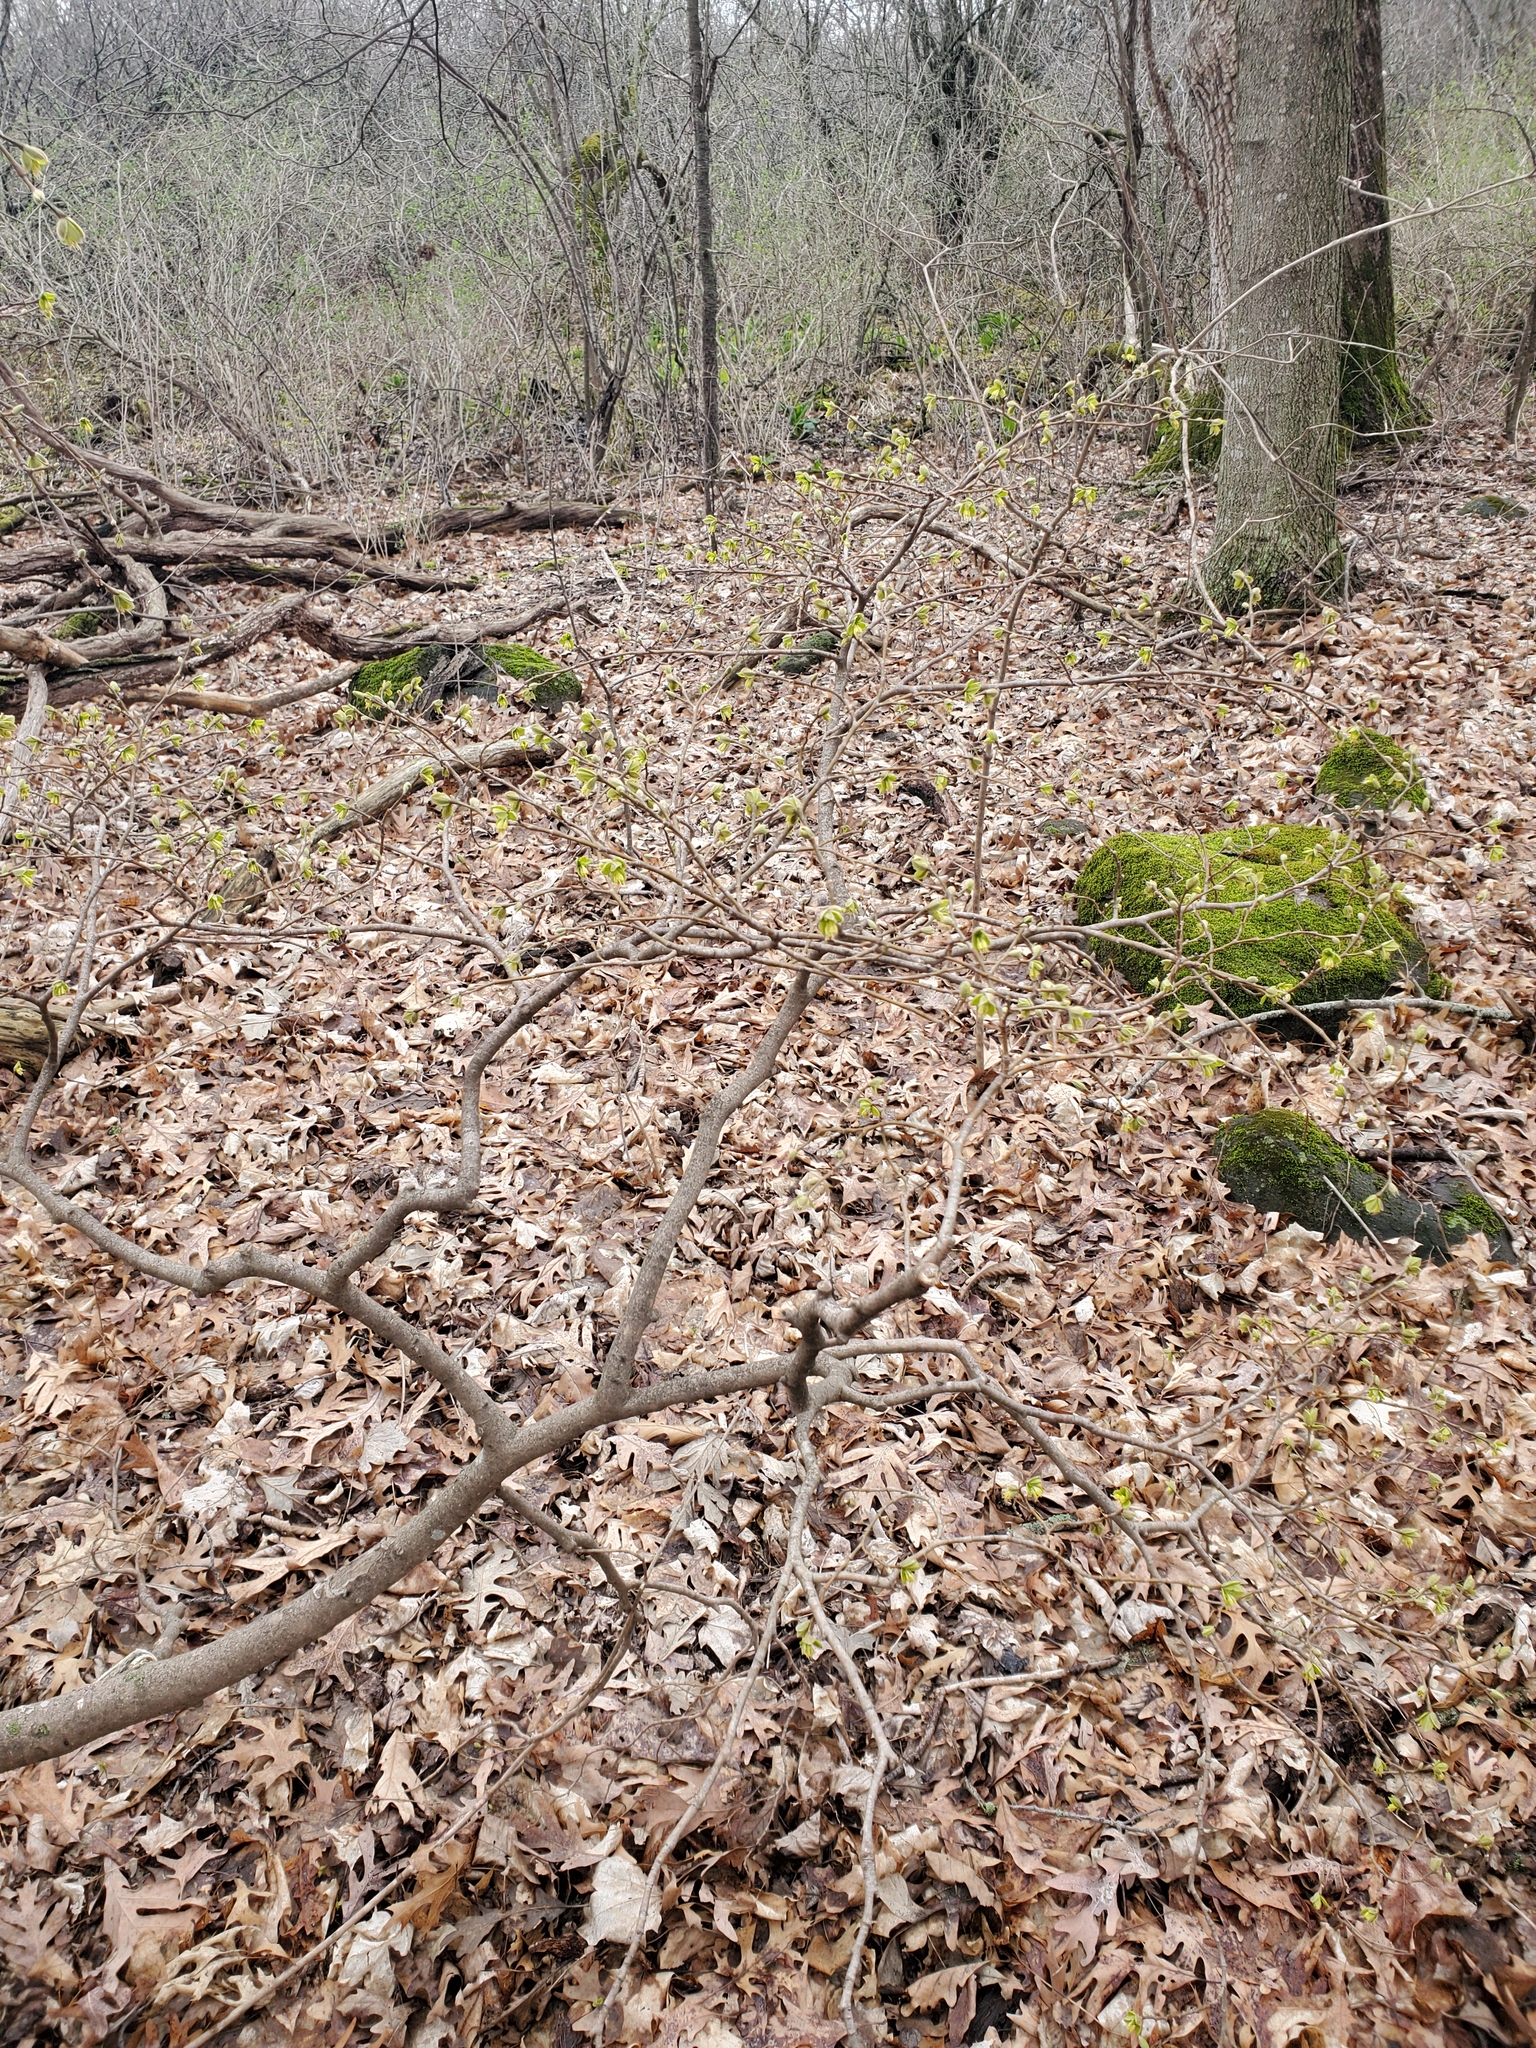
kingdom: Plantae
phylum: Tracheophyta
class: Magnoliopsida
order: Malvales
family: Thymelaeaceae
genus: Dirca
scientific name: Dirca palustris
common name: Leatherwood
